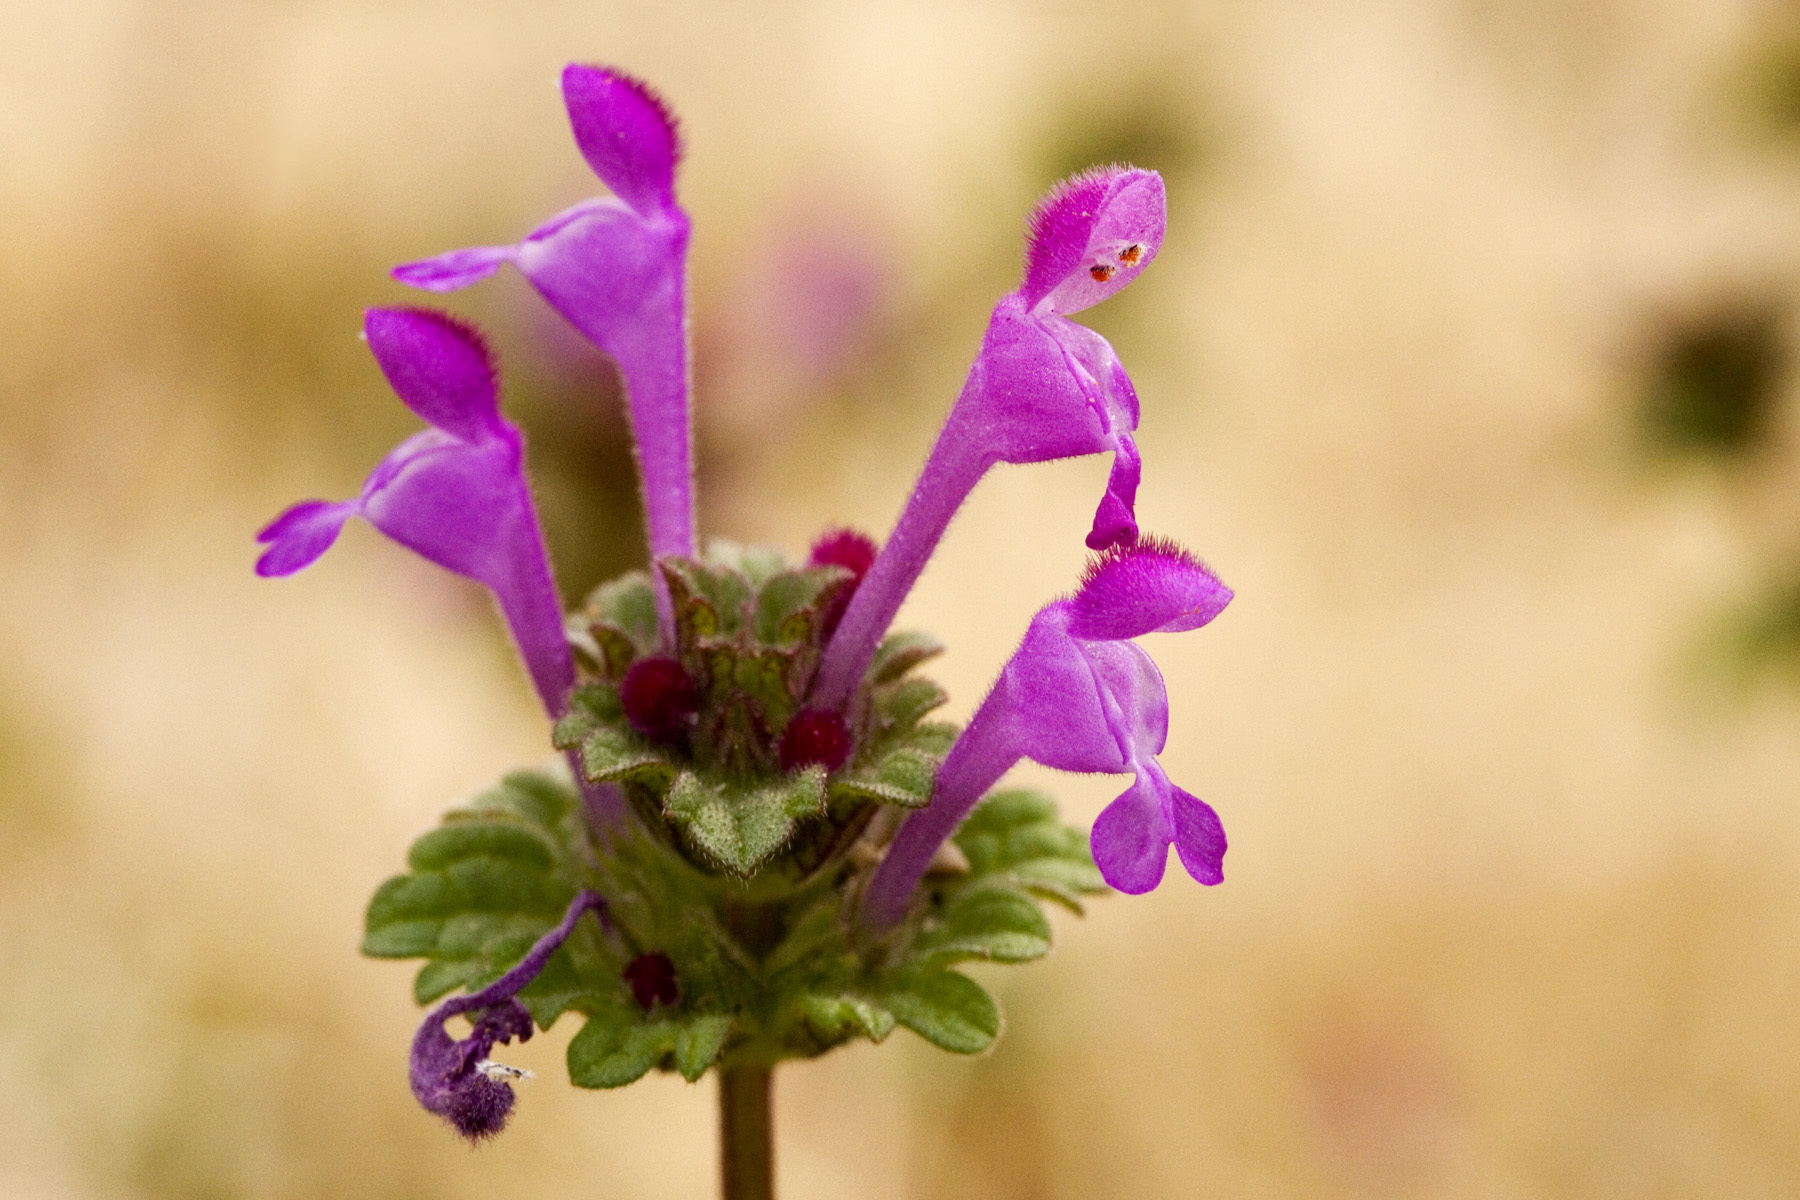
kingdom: Plantae
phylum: Tracheophyta
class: Magnoliopsida
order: Lamiales
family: Lamiaceae
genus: Lamium
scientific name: Lamium amplexicaule
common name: Henbit dead-nettle
